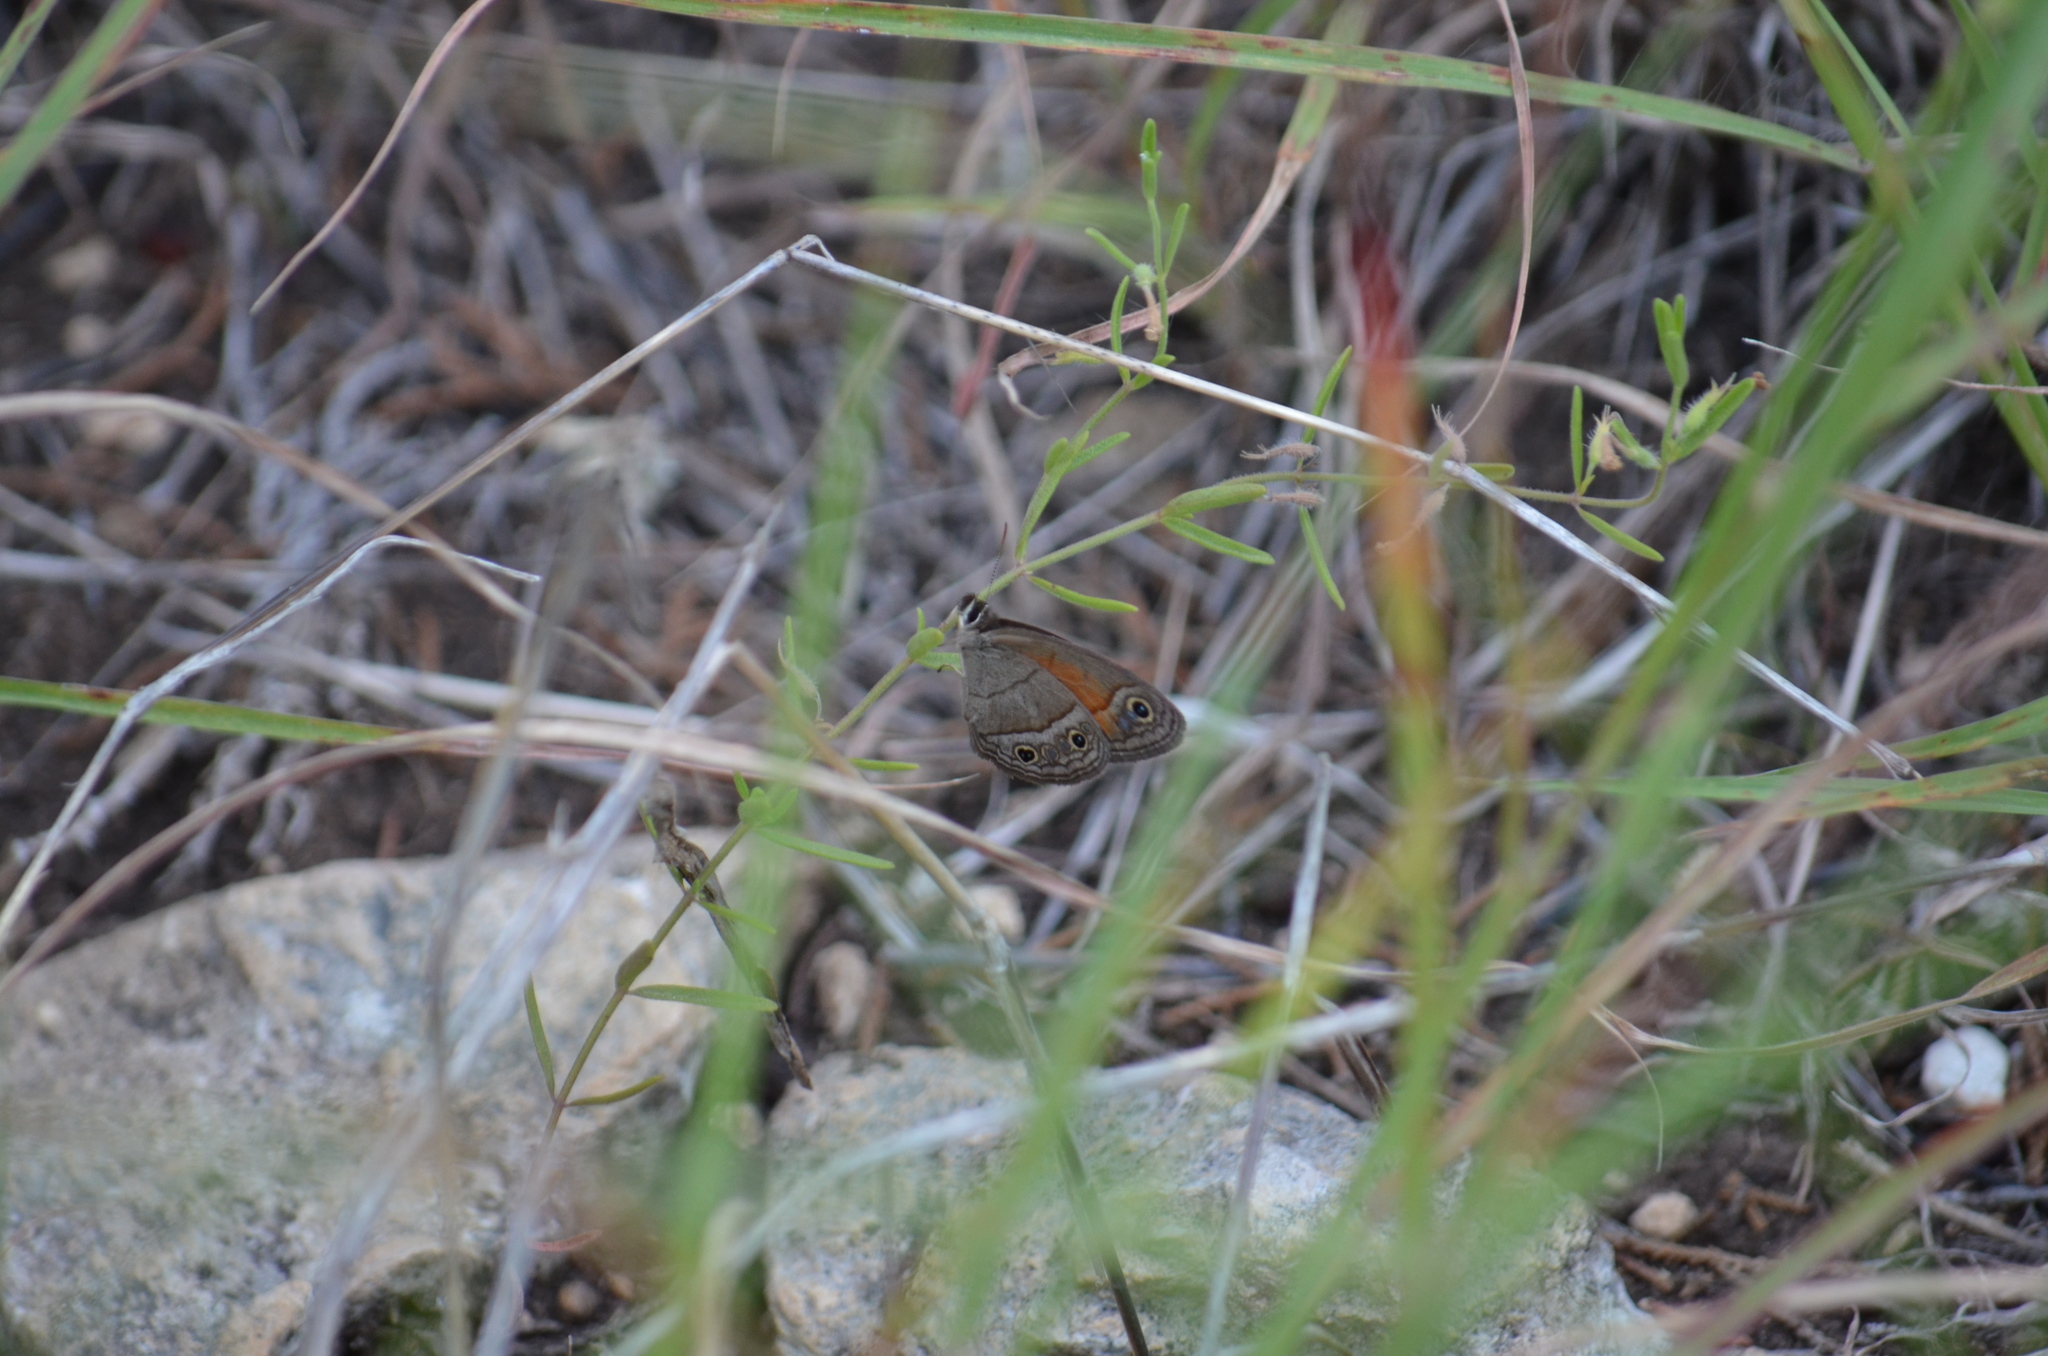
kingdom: Animalia
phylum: Arthropoda
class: Insecta
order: Lepidoptera
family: Nymphalidae
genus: Euptychia
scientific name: Euptychia Cissia rubricata
